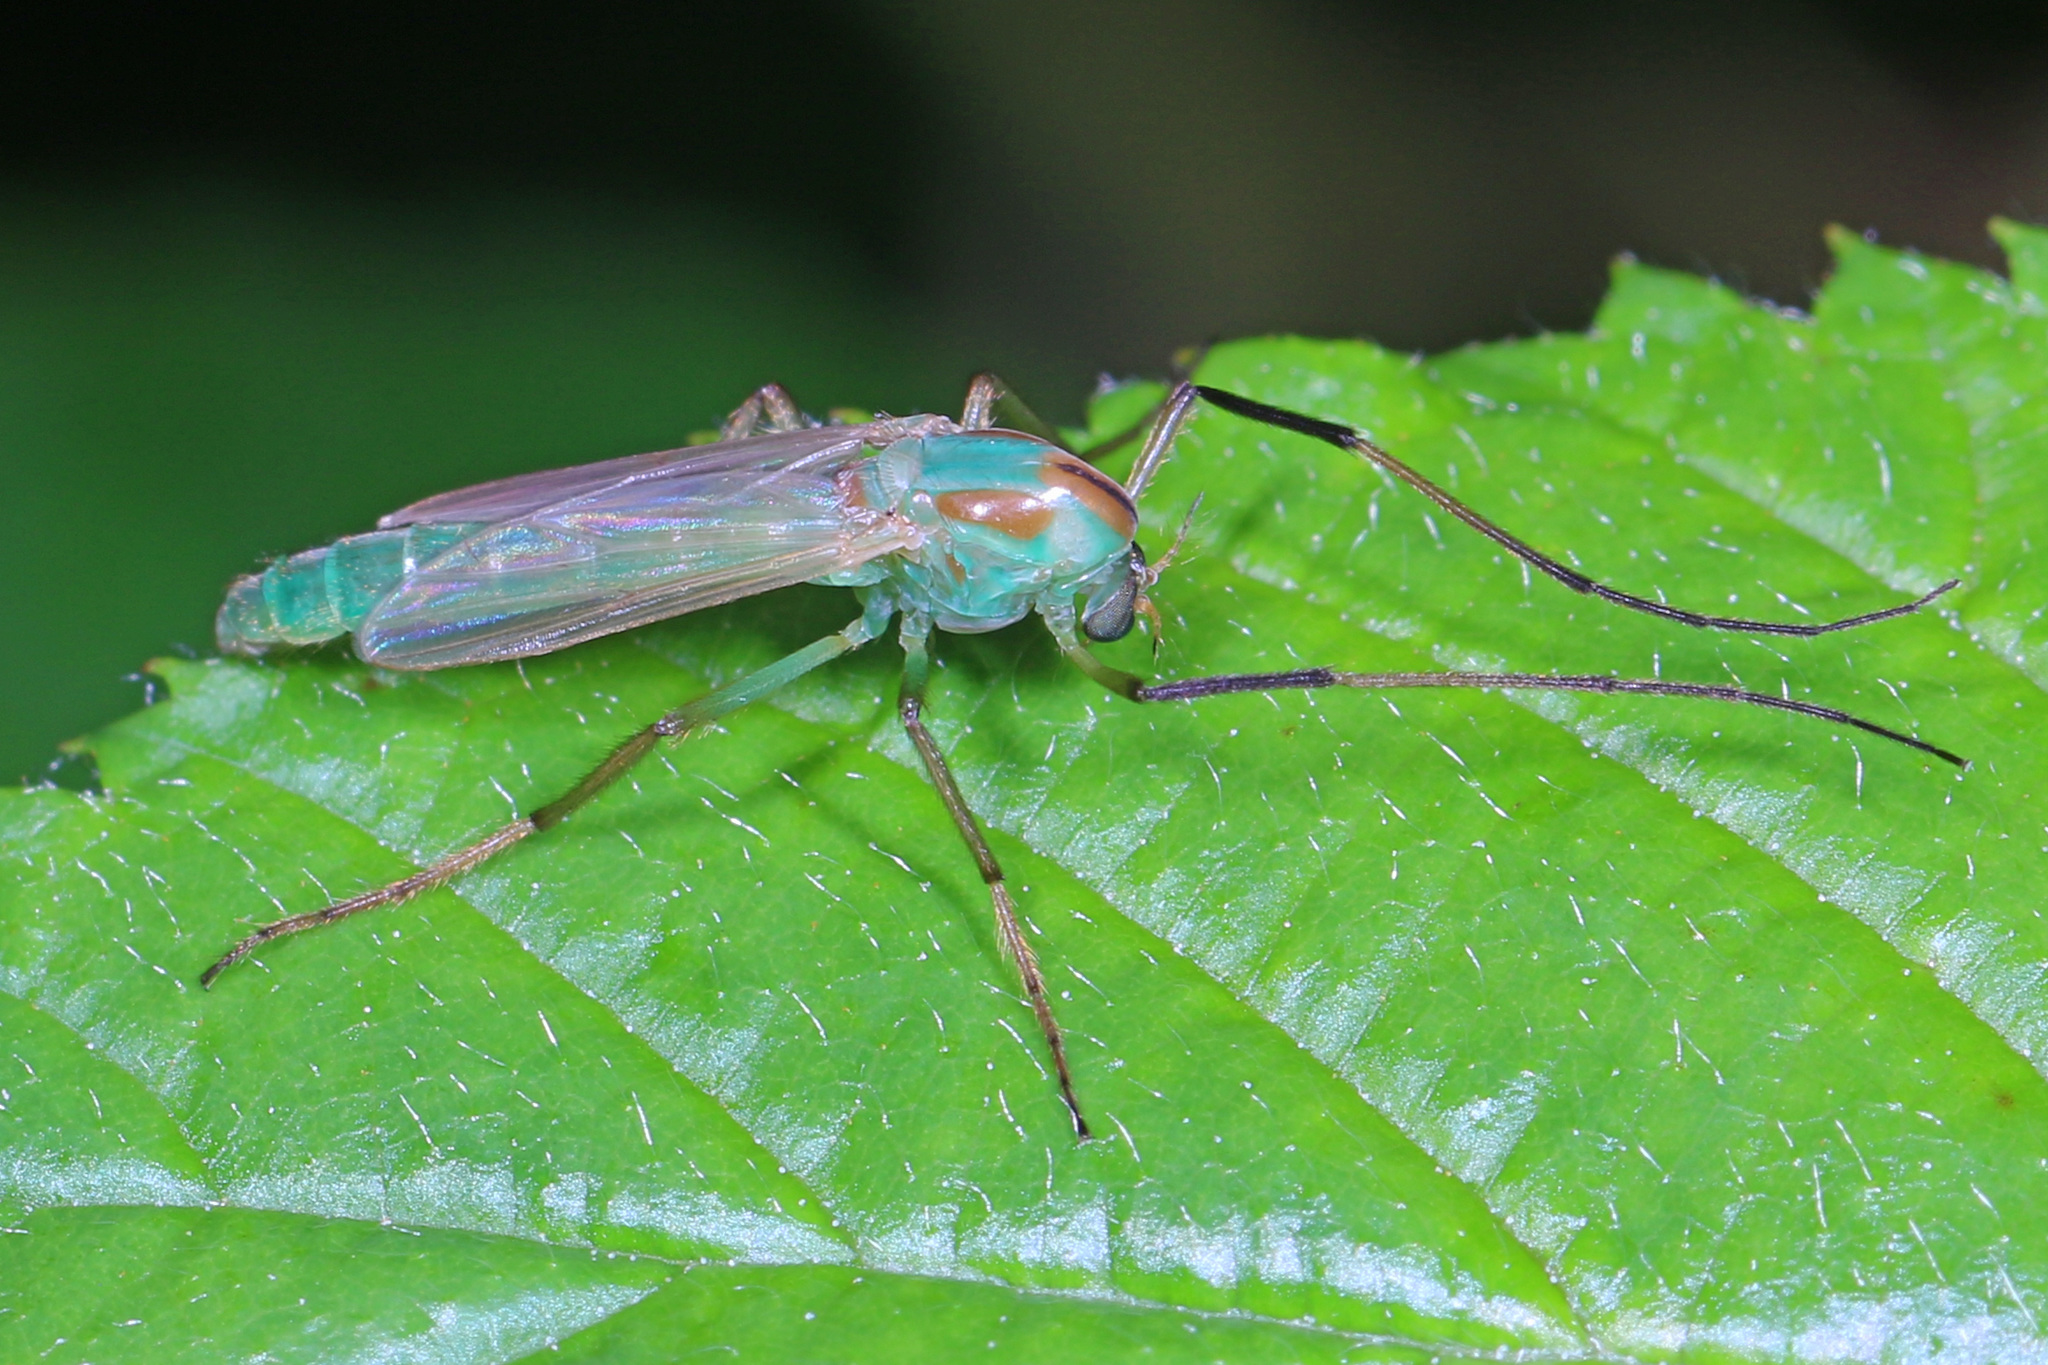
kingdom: Animalia
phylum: Arthropoda
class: Insecta
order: Diptera
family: Chironomidae
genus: Axarus
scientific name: Axarus
